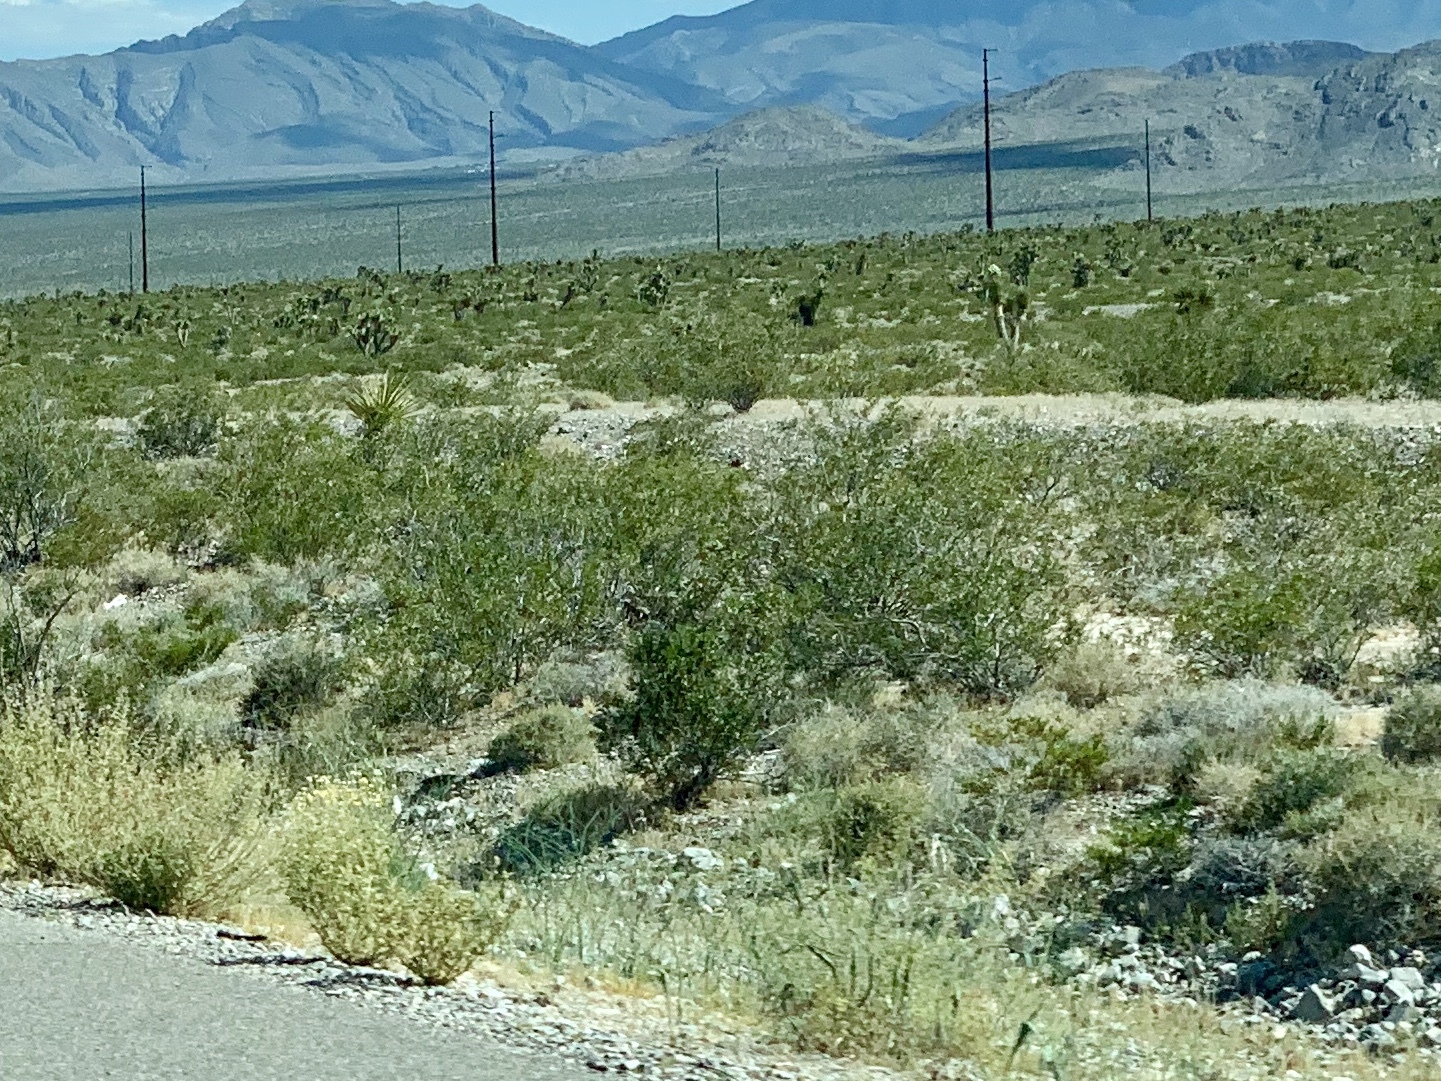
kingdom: Plantae
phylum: Tracheophyta
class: Magnoliopsida
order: Zygophyllales
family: Zygophyllaceae
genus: Larrea
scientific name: Larrea tridentata
